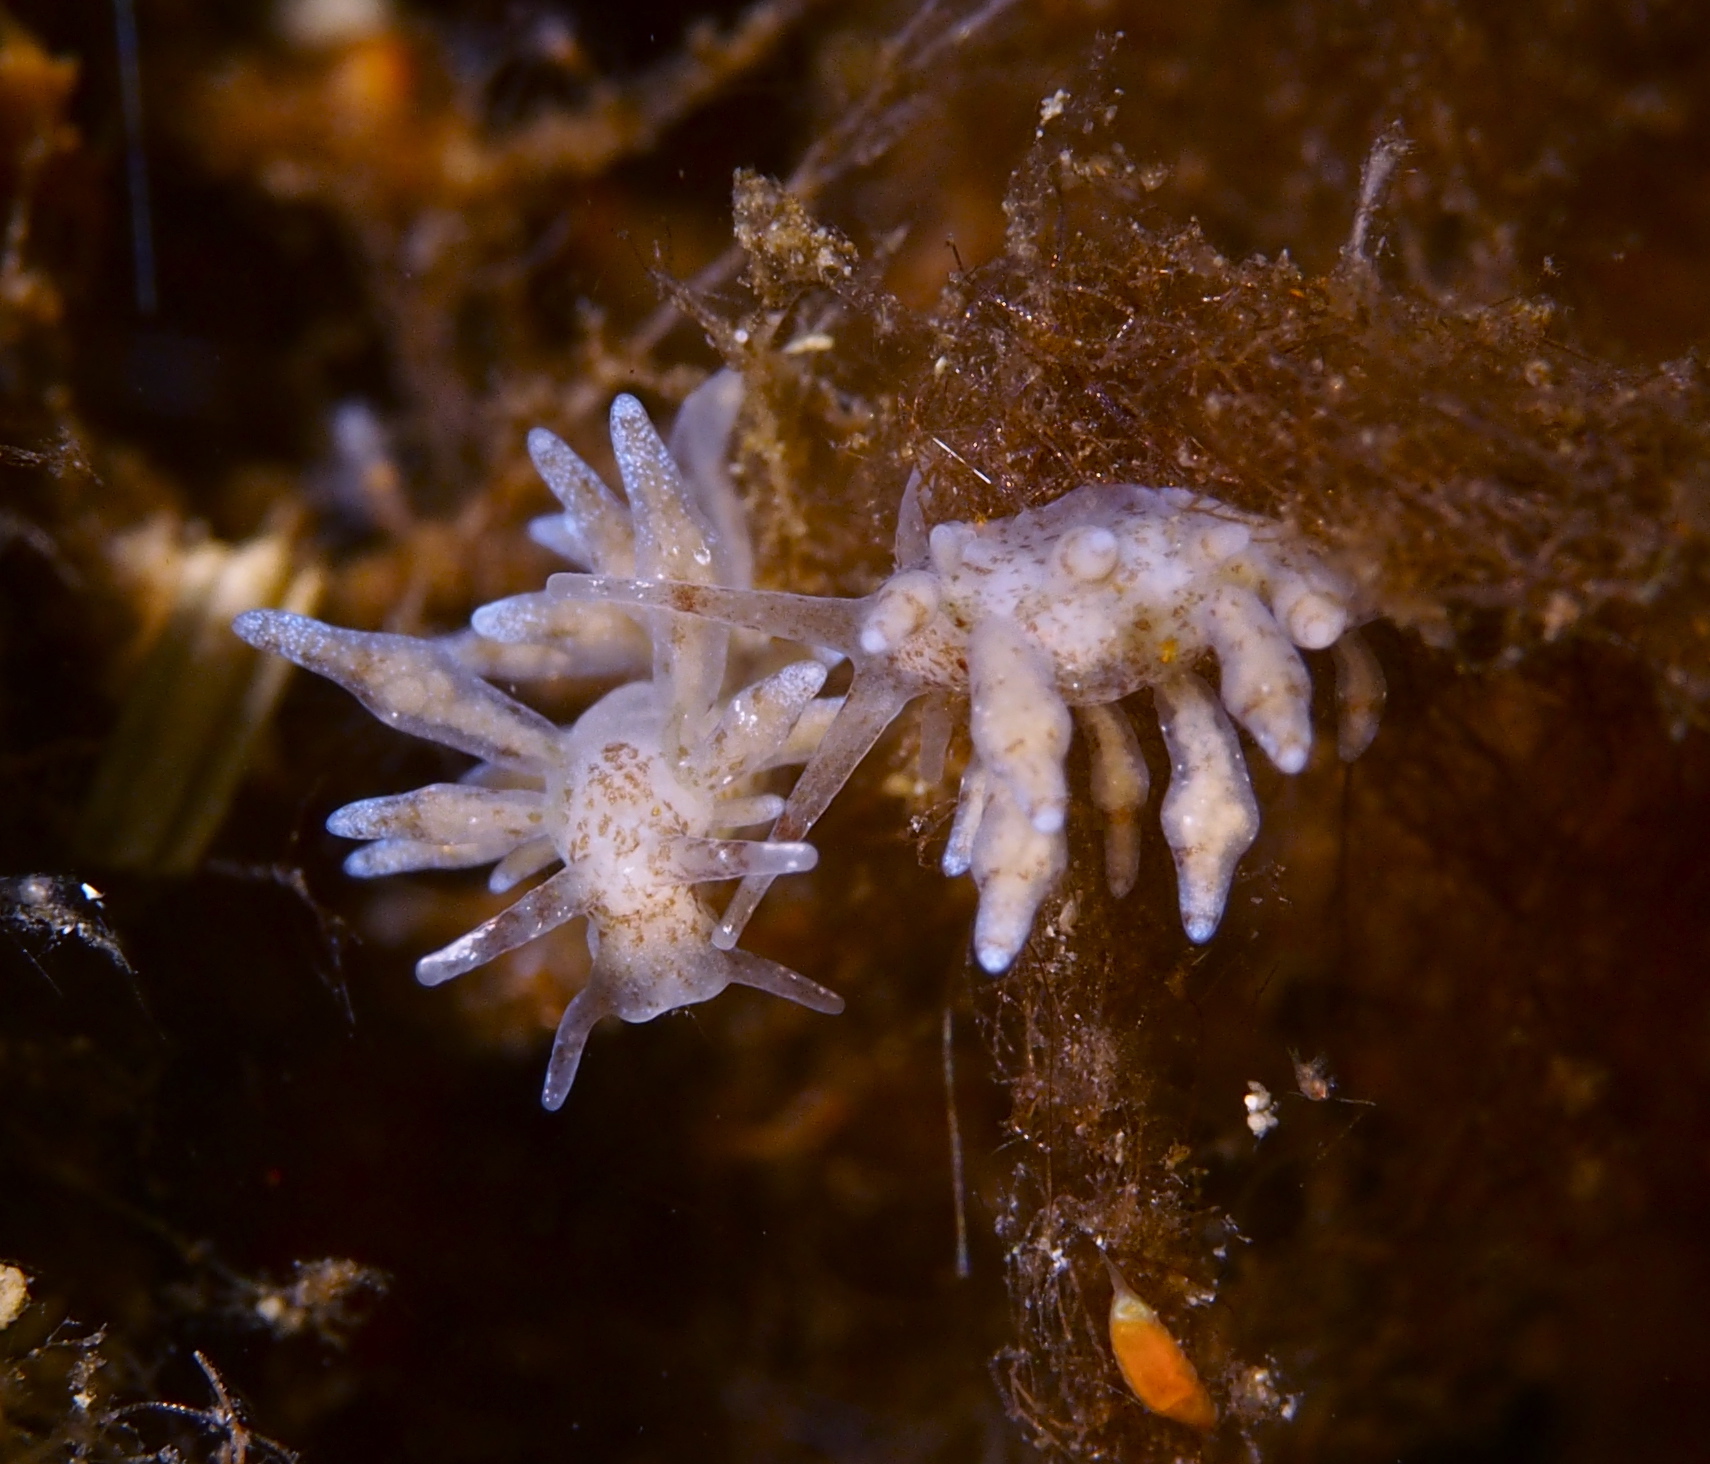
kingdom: Animalia
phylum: Mollusca
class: Gastropoda
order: Nudibranchia
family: Eubranchidae
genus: Eubranchus
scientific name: Eubranchus rupium
